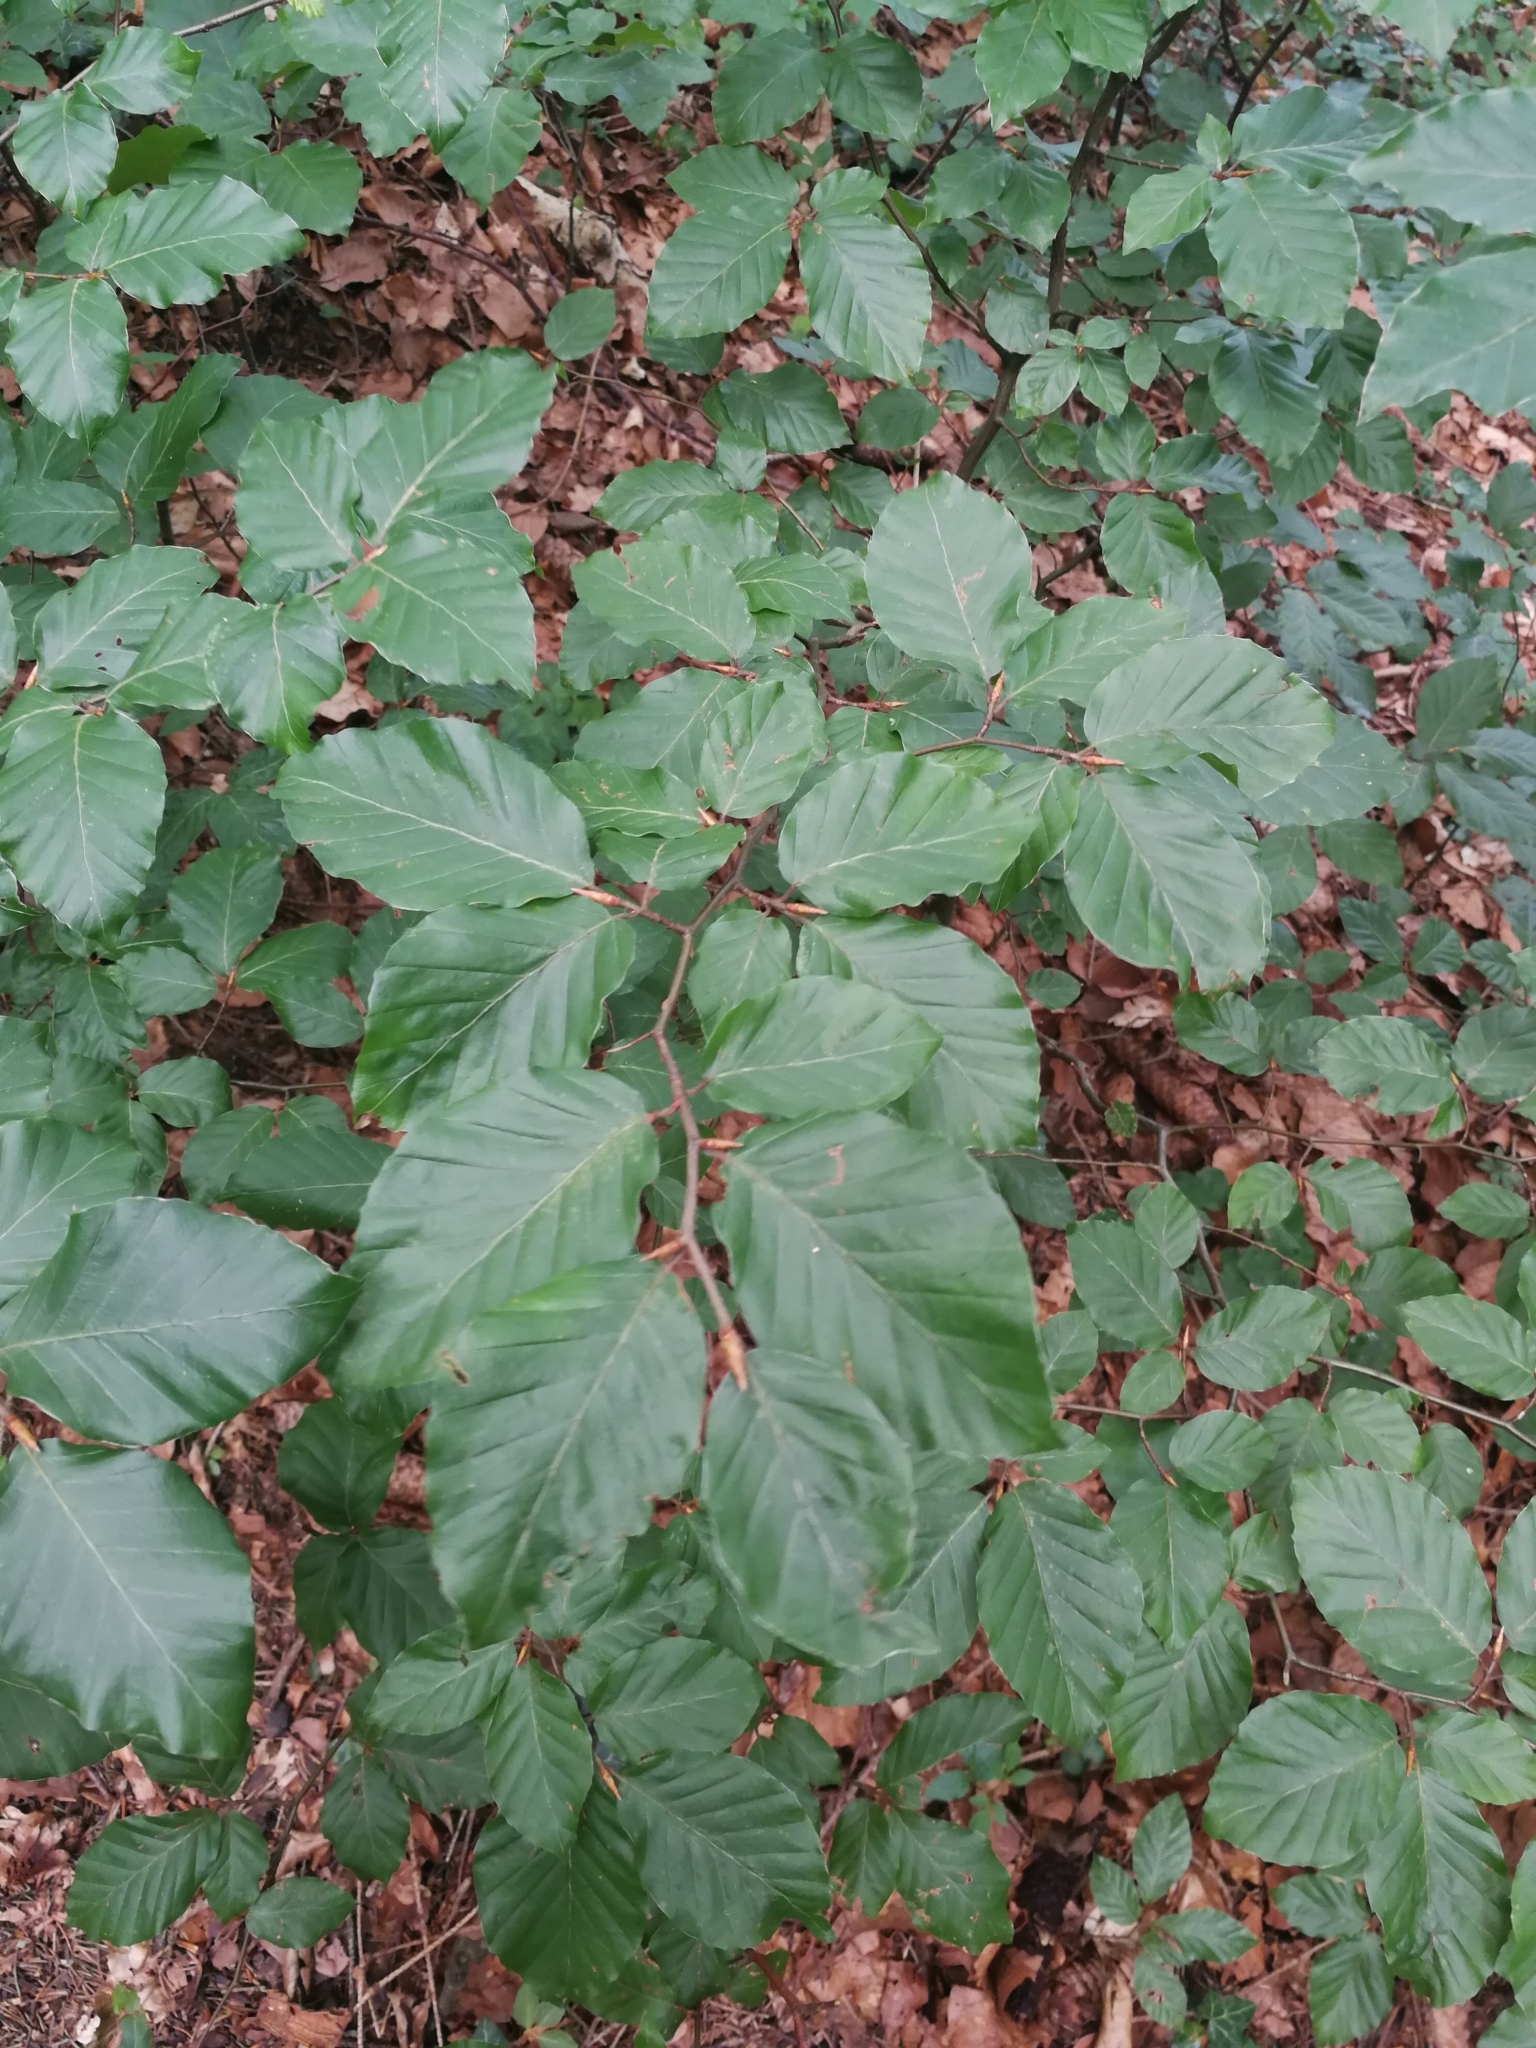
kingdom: Plantae
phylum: Tracheophyta
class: Magnoliopsida
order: Fagales
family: Fagaceae
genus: Fagus
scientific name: Fagus sylvatica
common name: Beech
